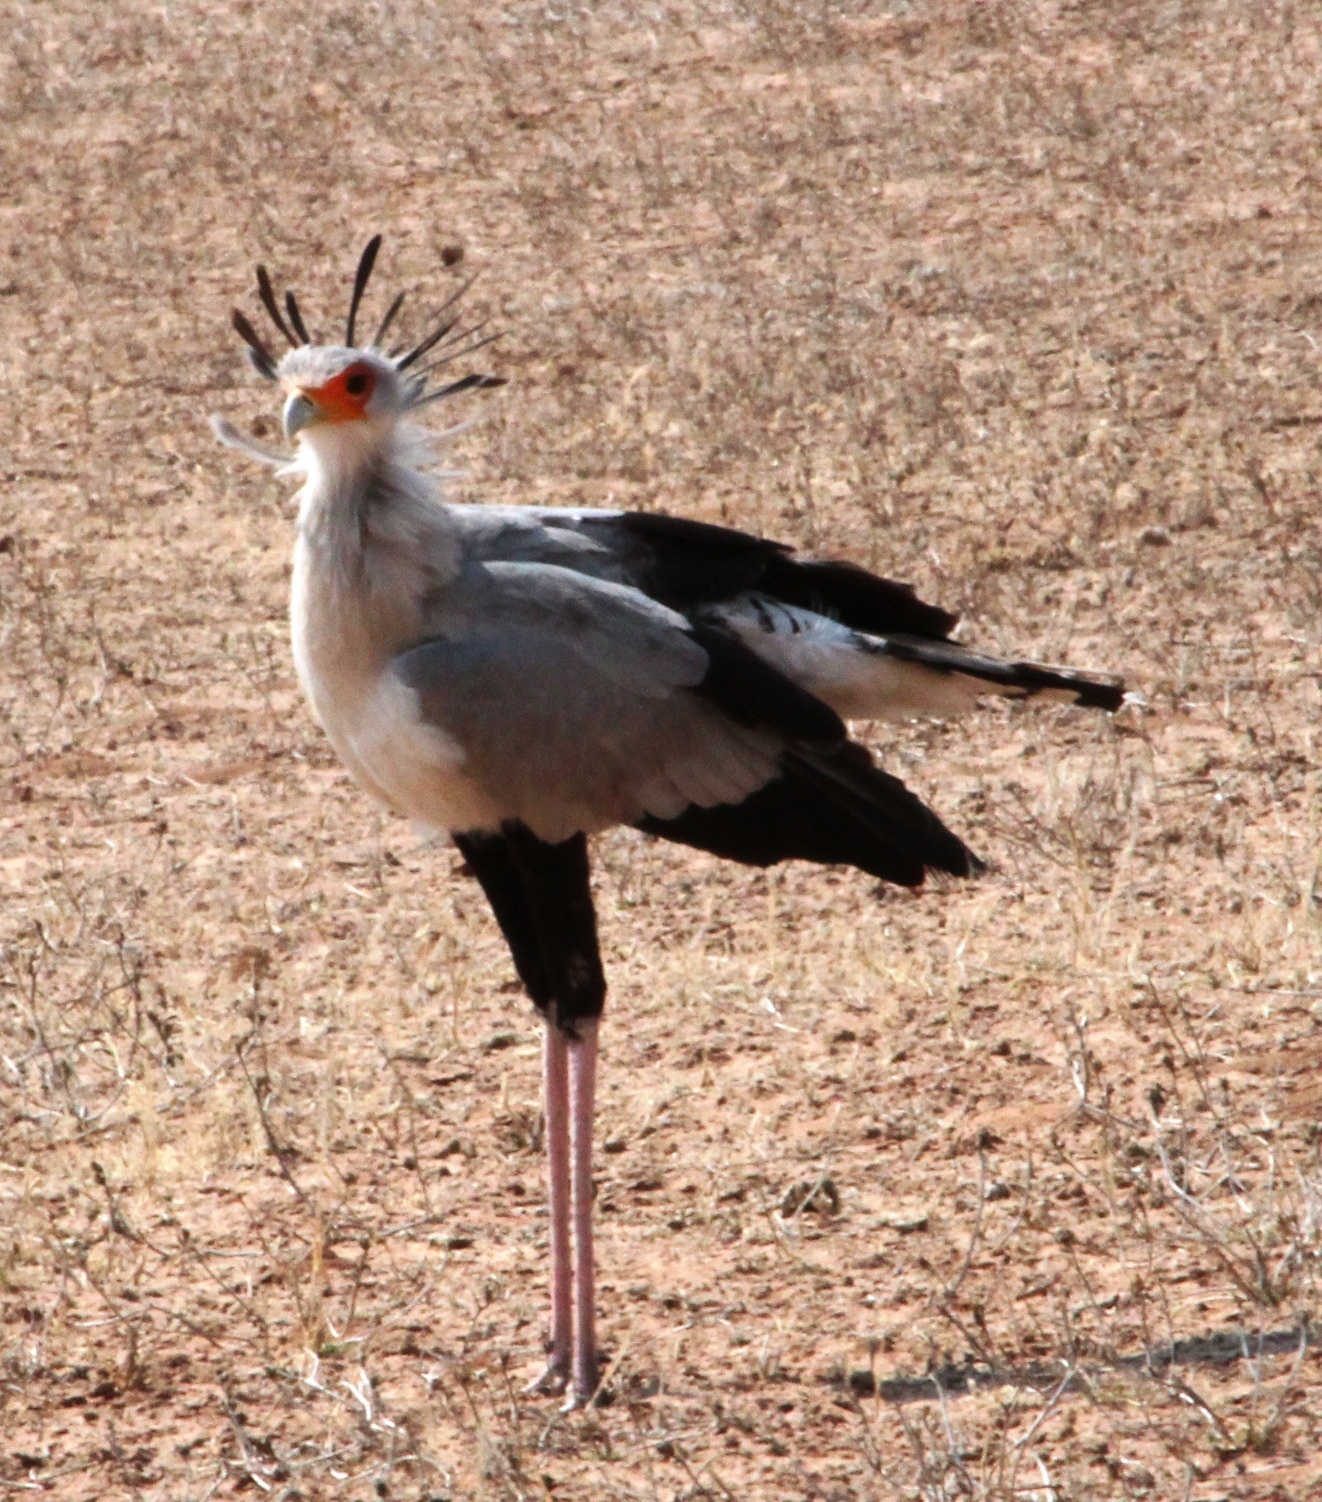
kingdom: Animalia
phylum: Chordata
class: Aves
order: Accipitriformes
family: Sagittariidae
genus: Sagittarius
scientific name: Sagittarius serpentarius
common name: Secretarybird
